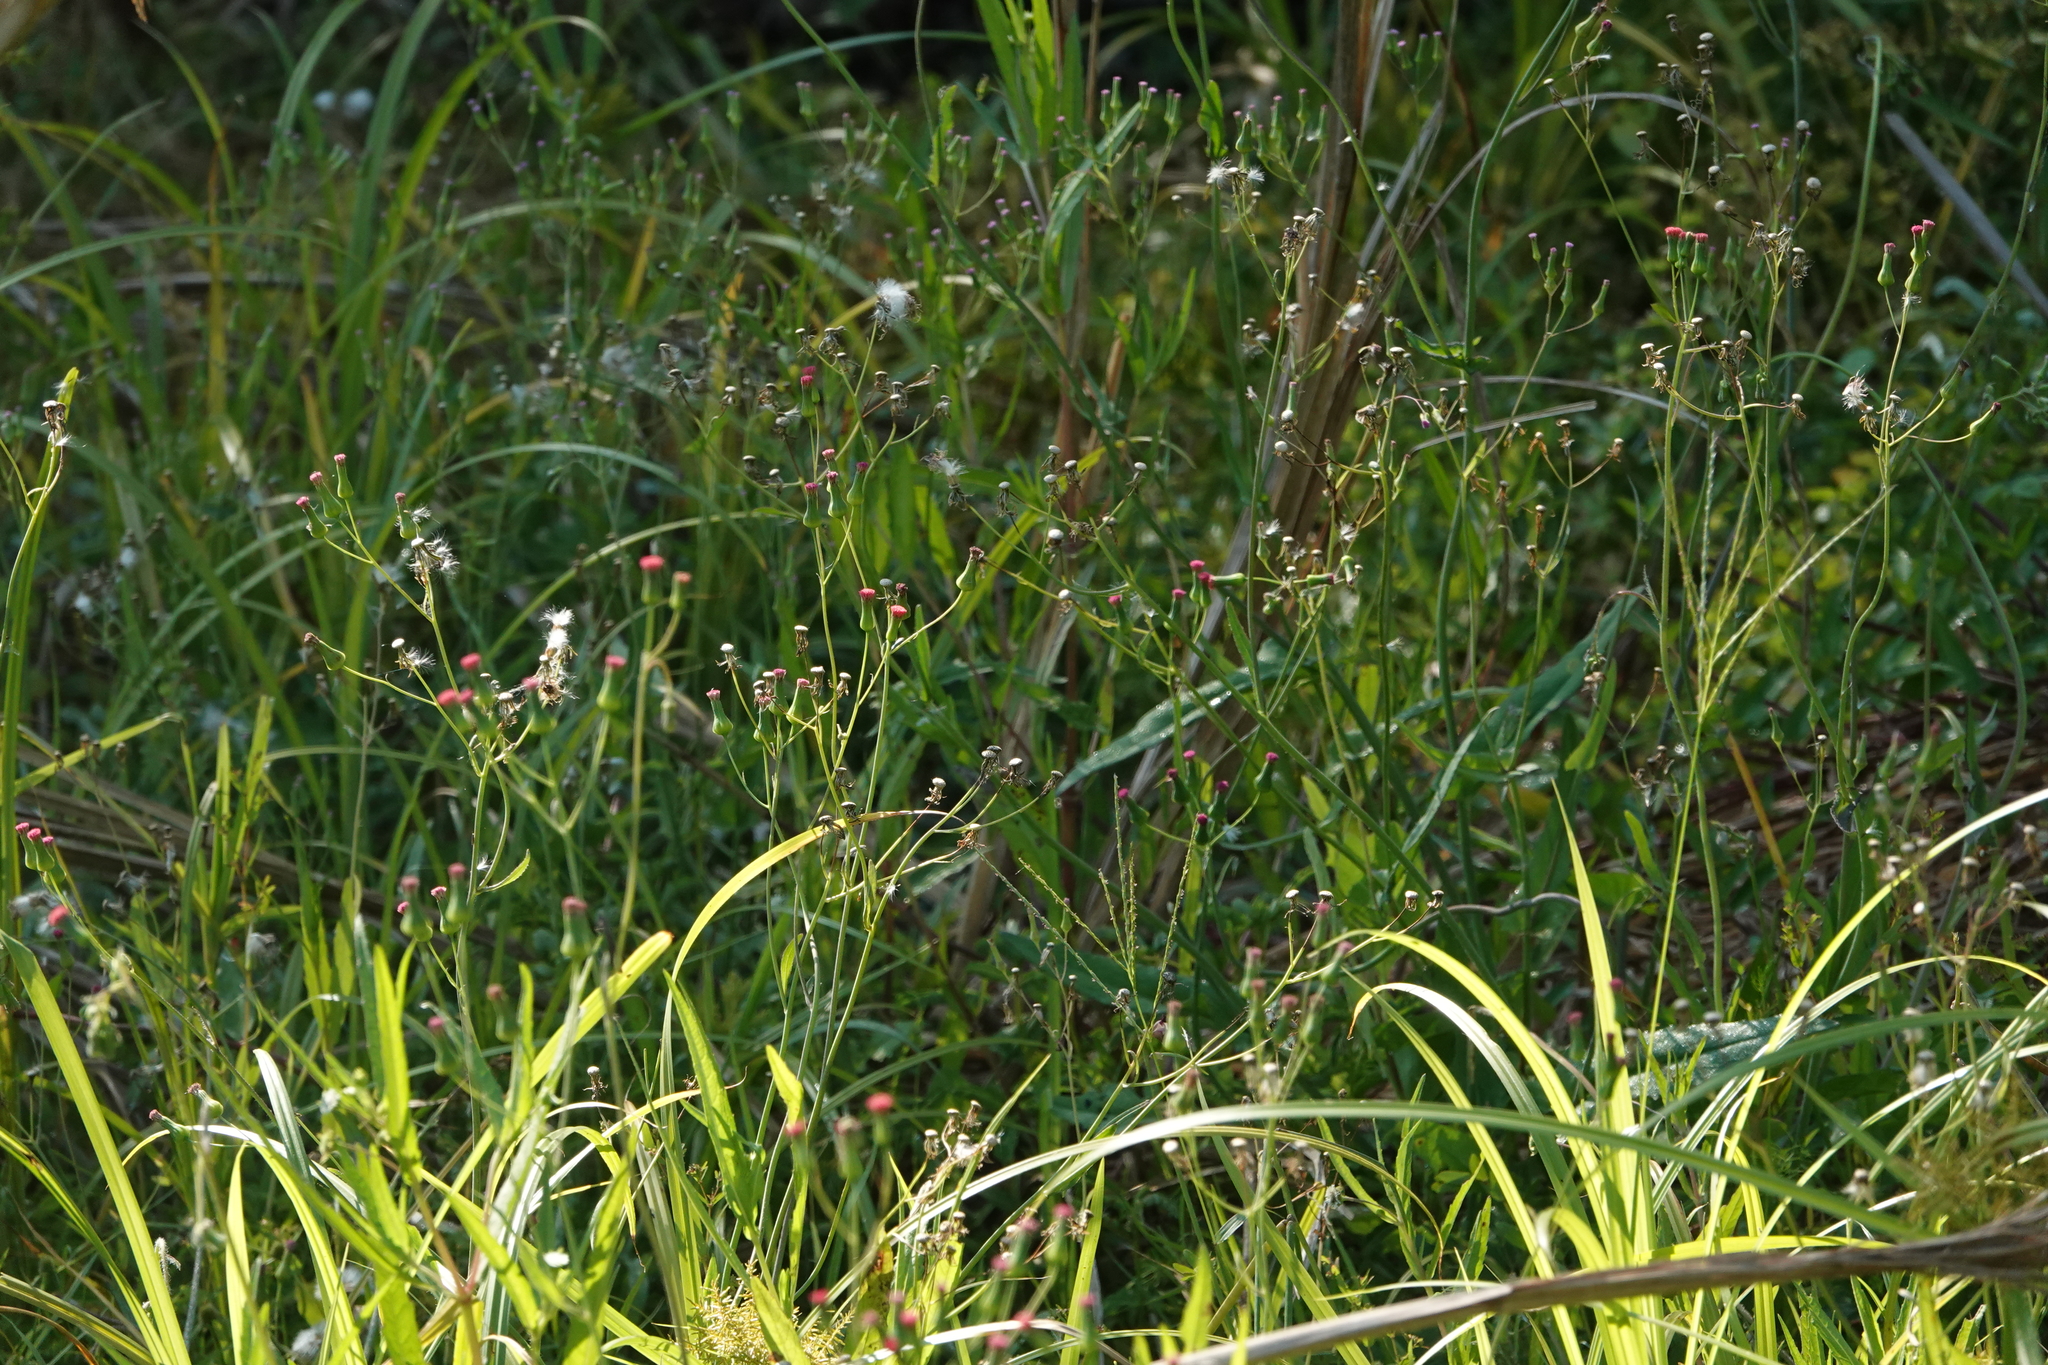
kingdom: Plantae
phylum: Tracheophyta
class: Magnoliopsida
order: Asterales
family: Asteraceae
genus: Emilia
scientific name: Emilia fosbergii
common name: Florida tasselflower
